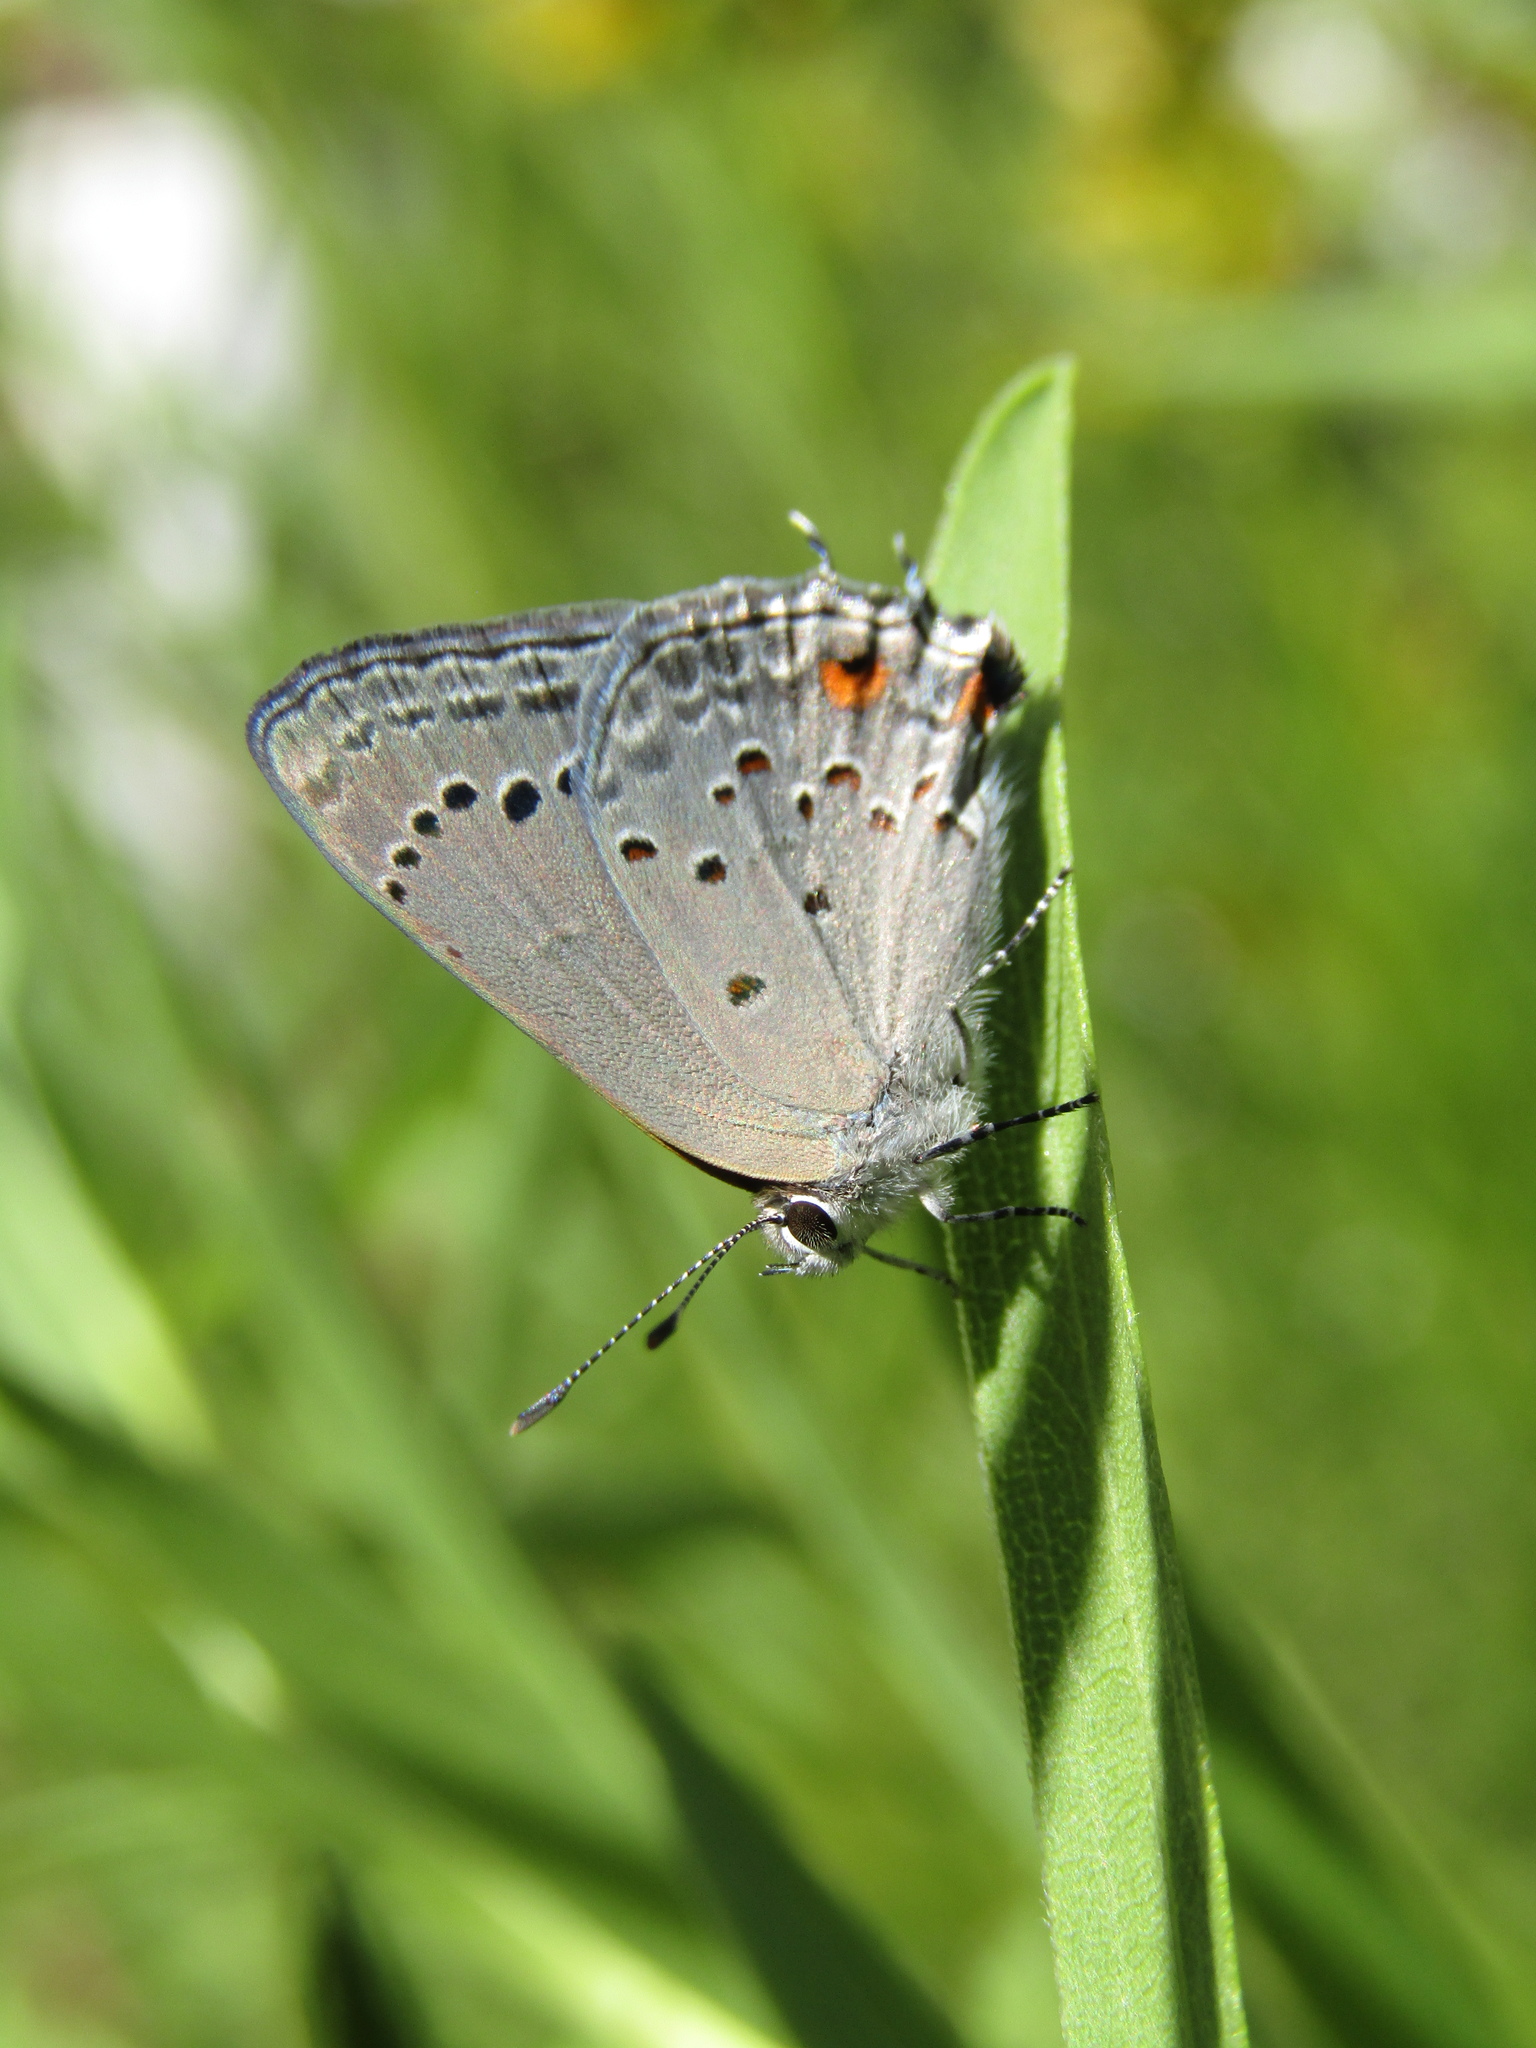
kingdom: Animalia
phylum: Arthropoda
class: Insecta
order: Lepidoptera
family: Lycaenidae
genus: Strymon
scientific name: Strymon eurytulus
